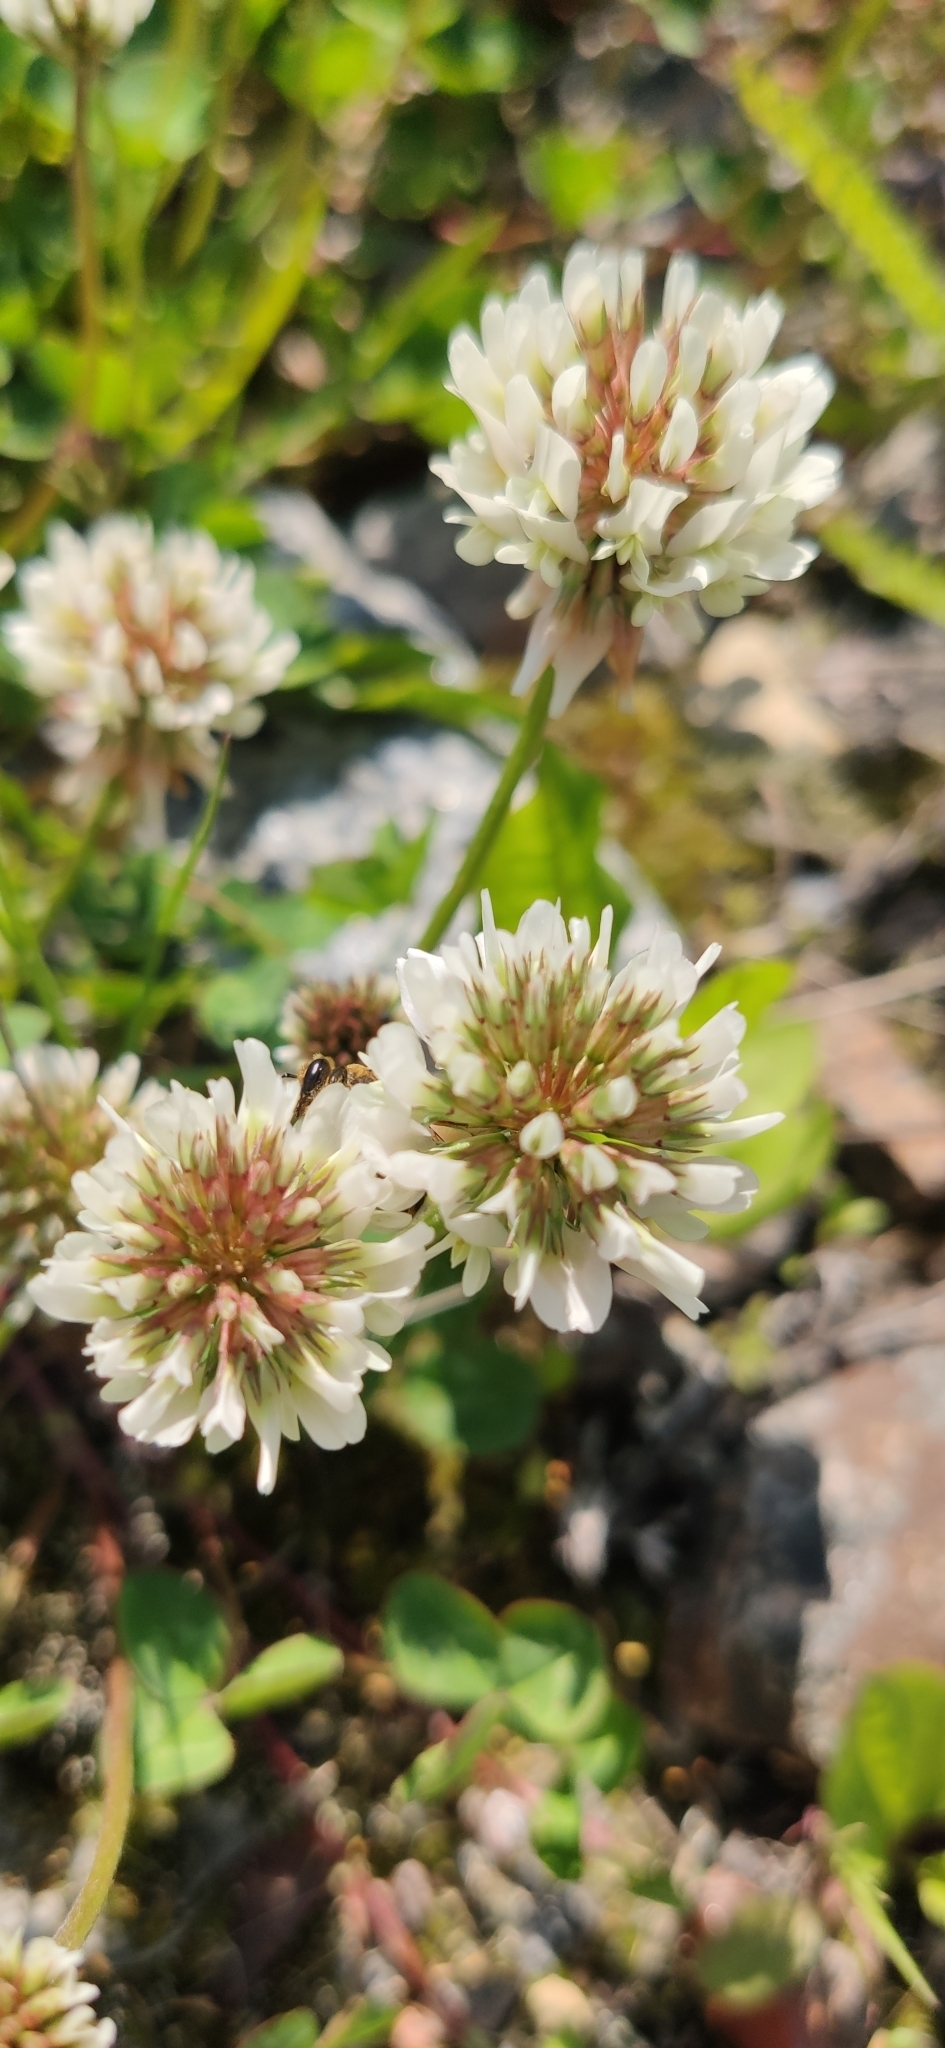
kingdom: Plantae
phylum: Tracheophyta
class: Magnoliopsida
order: Fabales
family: Fabaceae
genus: Trifolium
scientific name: Trifolium repens
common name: White clover
